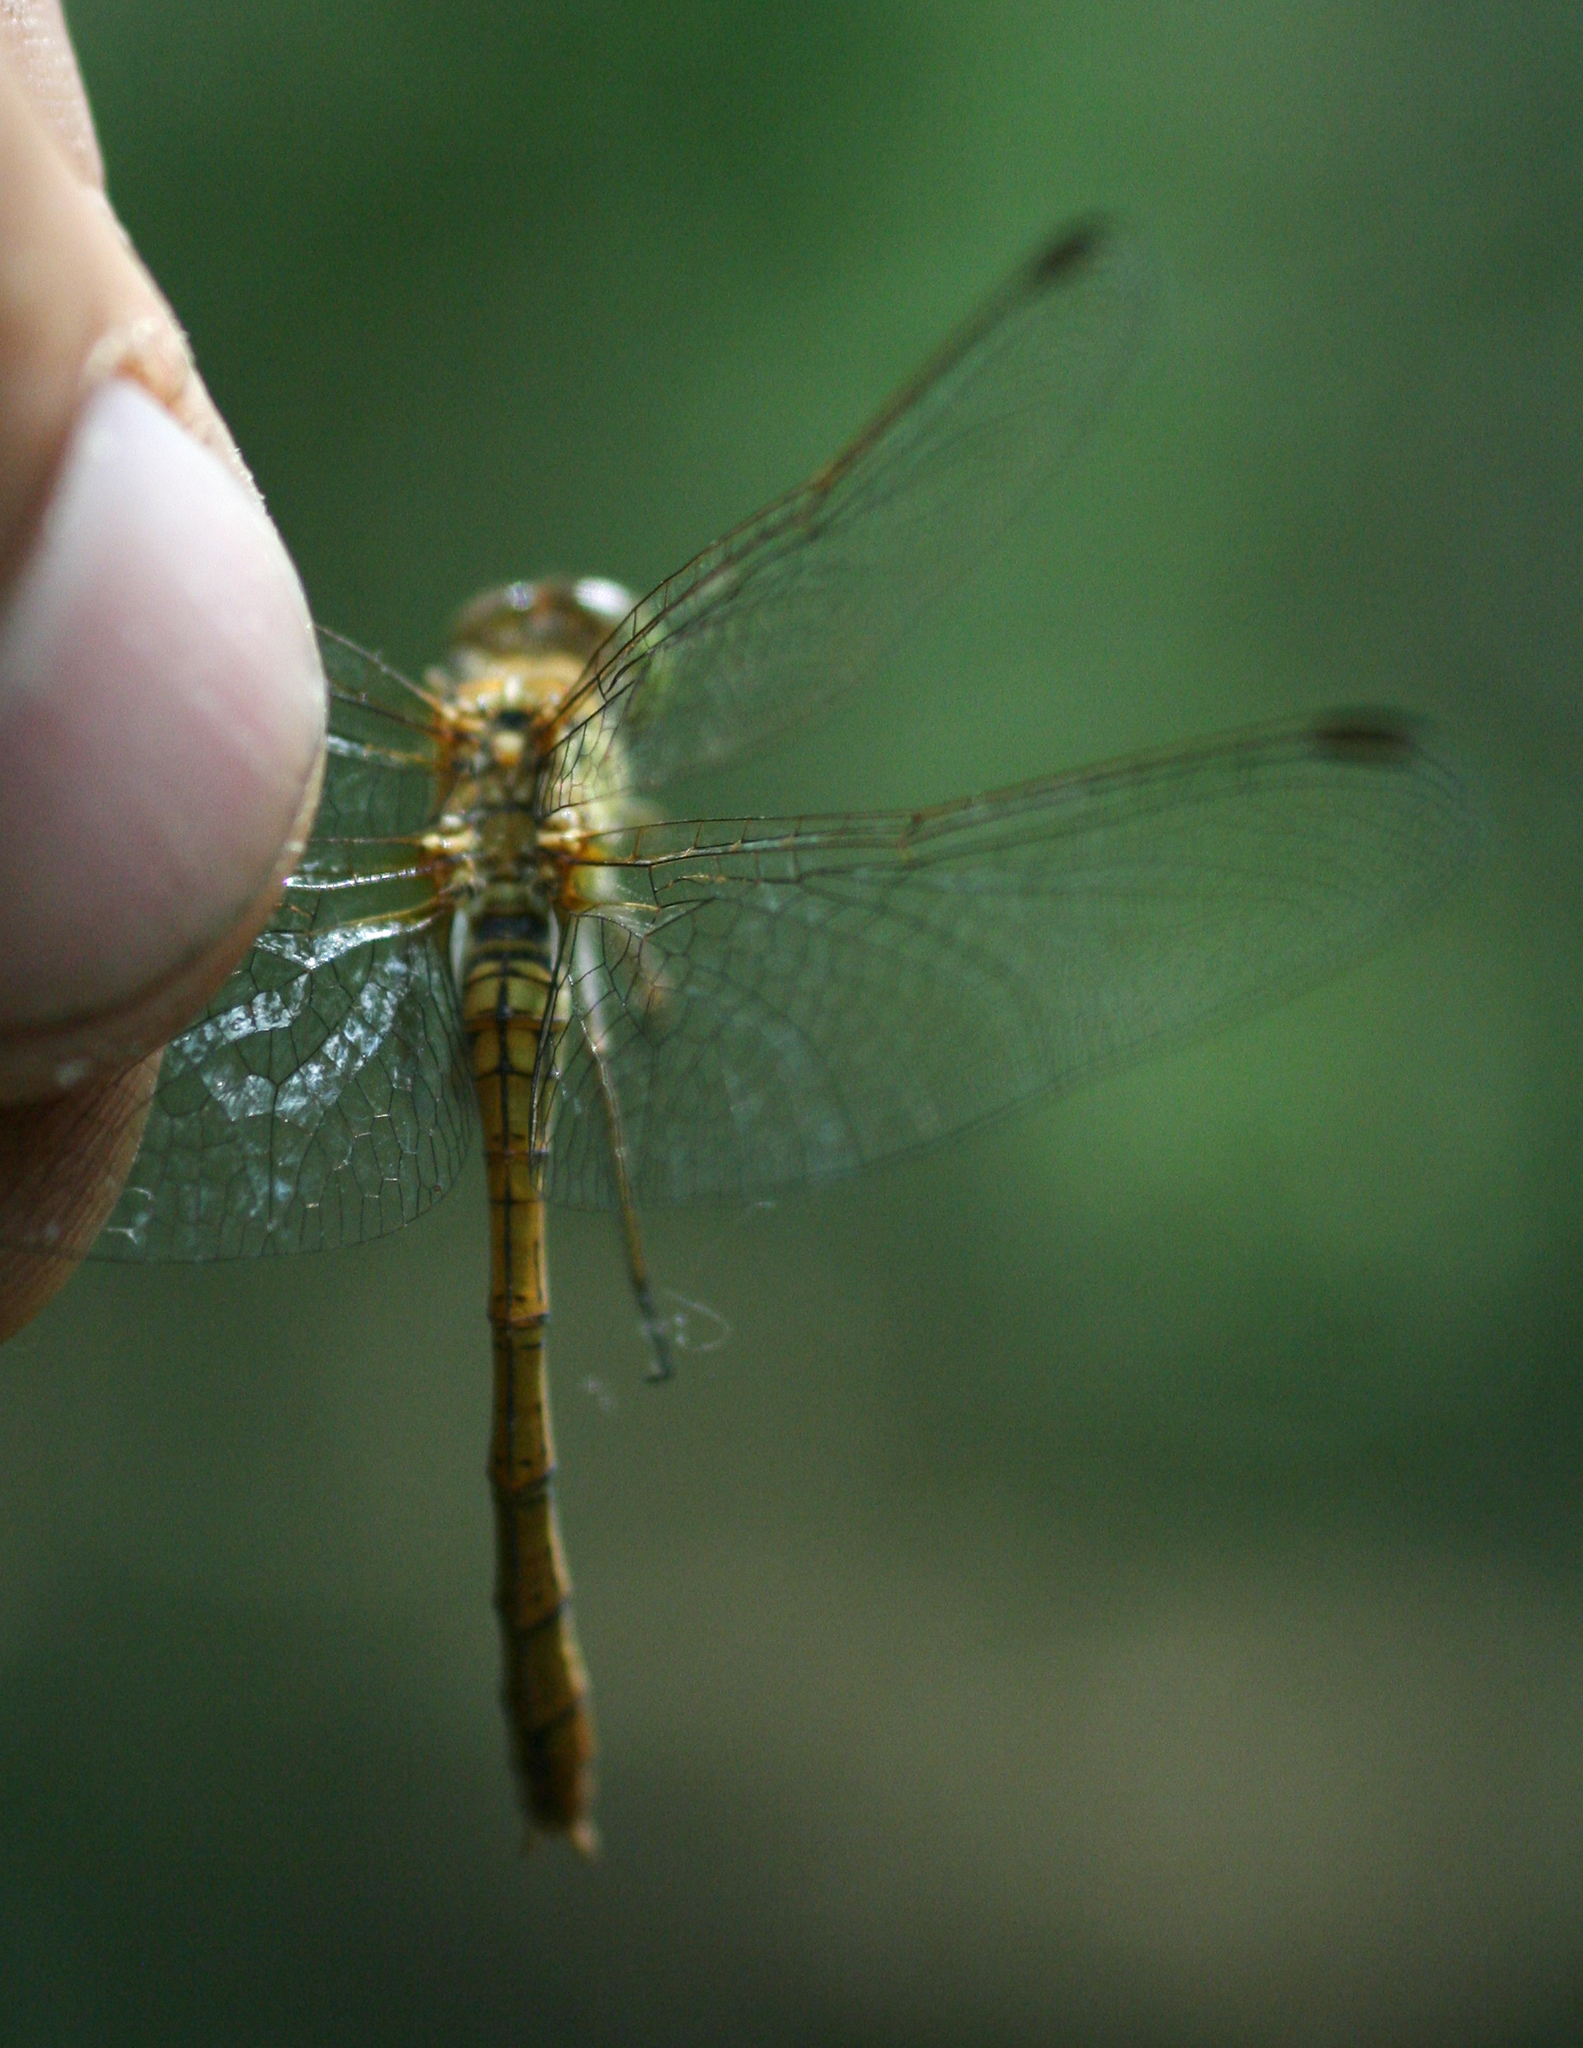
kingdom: Animalia
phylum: Arthropoda
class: Insecta
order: Odonata
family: Libellulidae
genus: Sympetrum
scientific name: Sympetrum meridionale
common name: Southern darter
